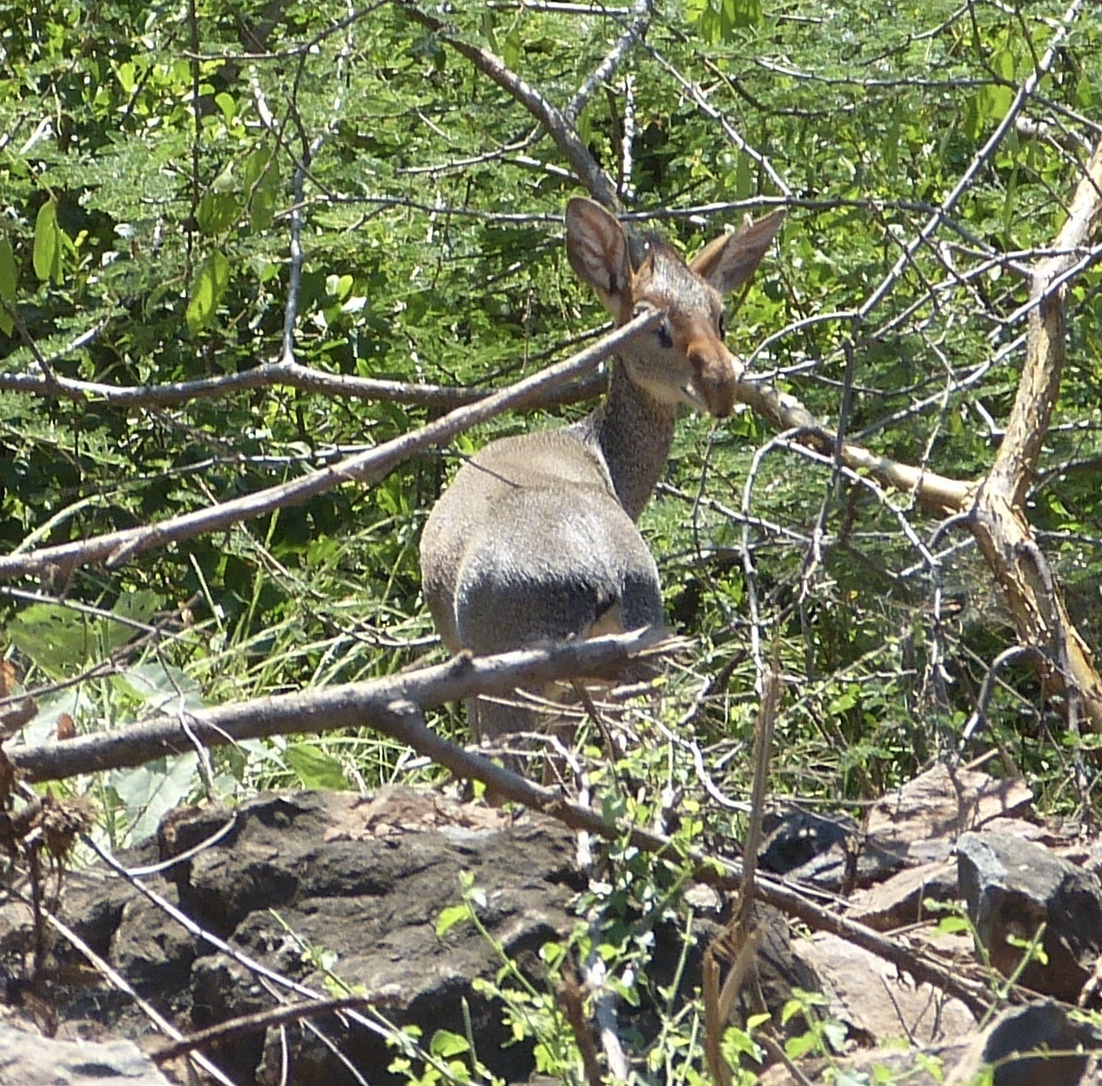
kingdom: Animalia
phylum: Chordata
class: Mammalia
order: Artiodactyla
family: Bovidae
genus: Madoqua
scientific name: Madoqua guentheri
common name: Günther's dikdik
